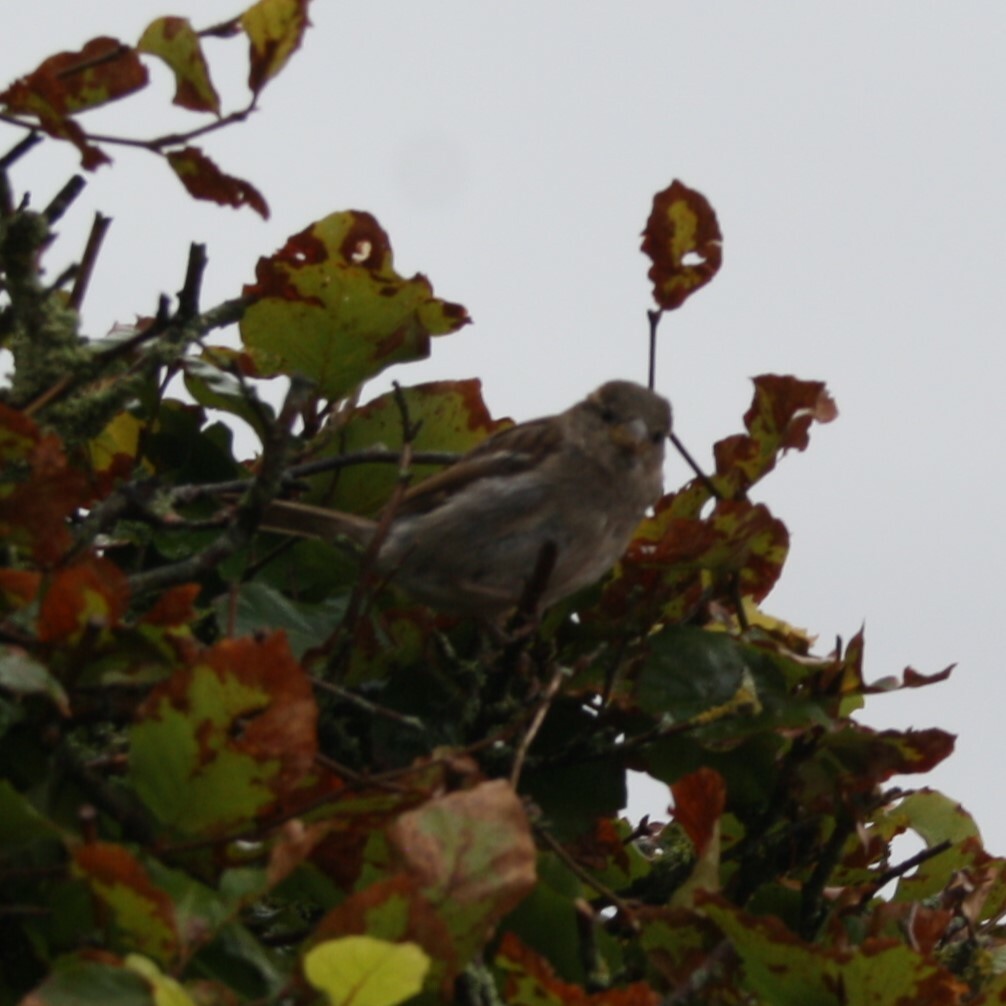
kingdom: Animalia
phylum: Chordata
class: Aves
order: Passeriformes
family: Passeridae
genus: Passer
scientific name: Passer domesticus
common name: House sparrow
